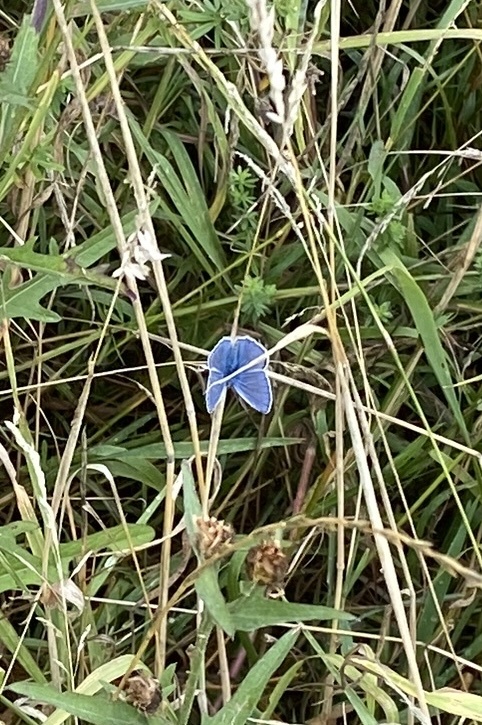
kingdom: Animalia
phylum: Arthropoda
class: Insecta
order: Lepidoptera
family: Lycaenidae
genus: Polyommatus
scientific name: Polyommatus icarus
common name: Common blue
